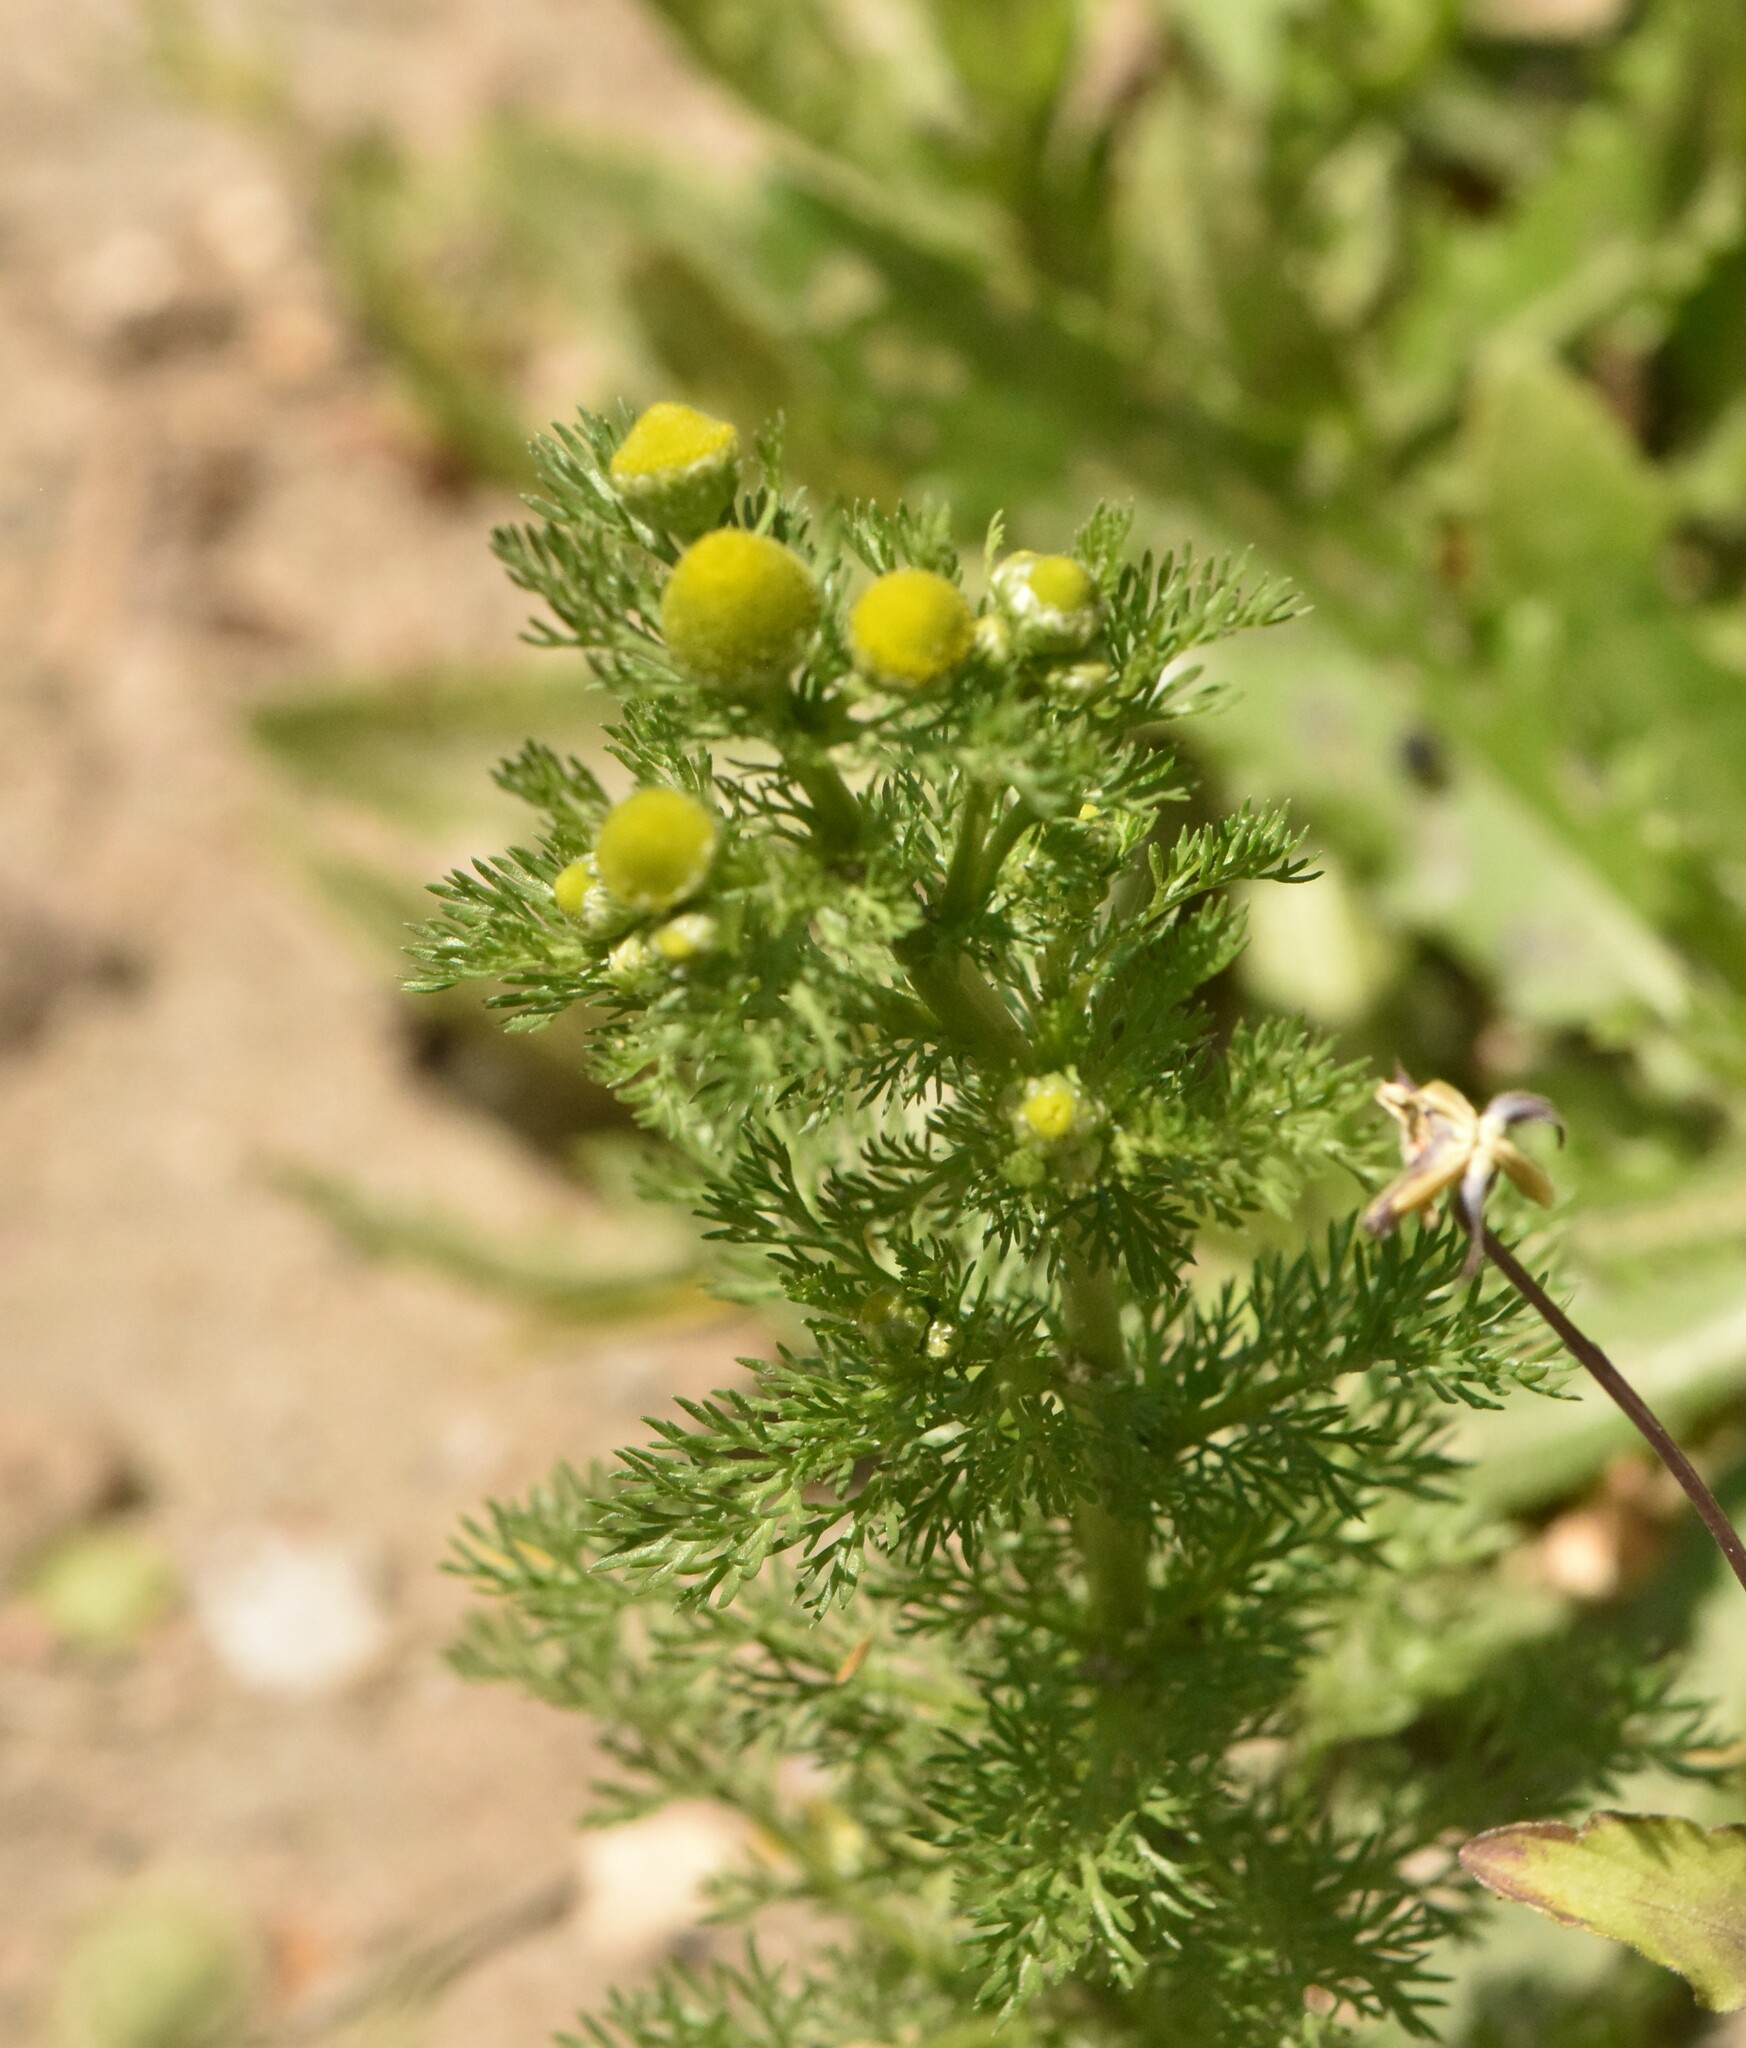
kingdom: Plantae
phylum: Tracheophyta
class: Magnoliopsida
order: Asterales
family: Asteraceae
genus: Matricaria
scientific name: Matricaria discoidea
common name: Disc mayweed
